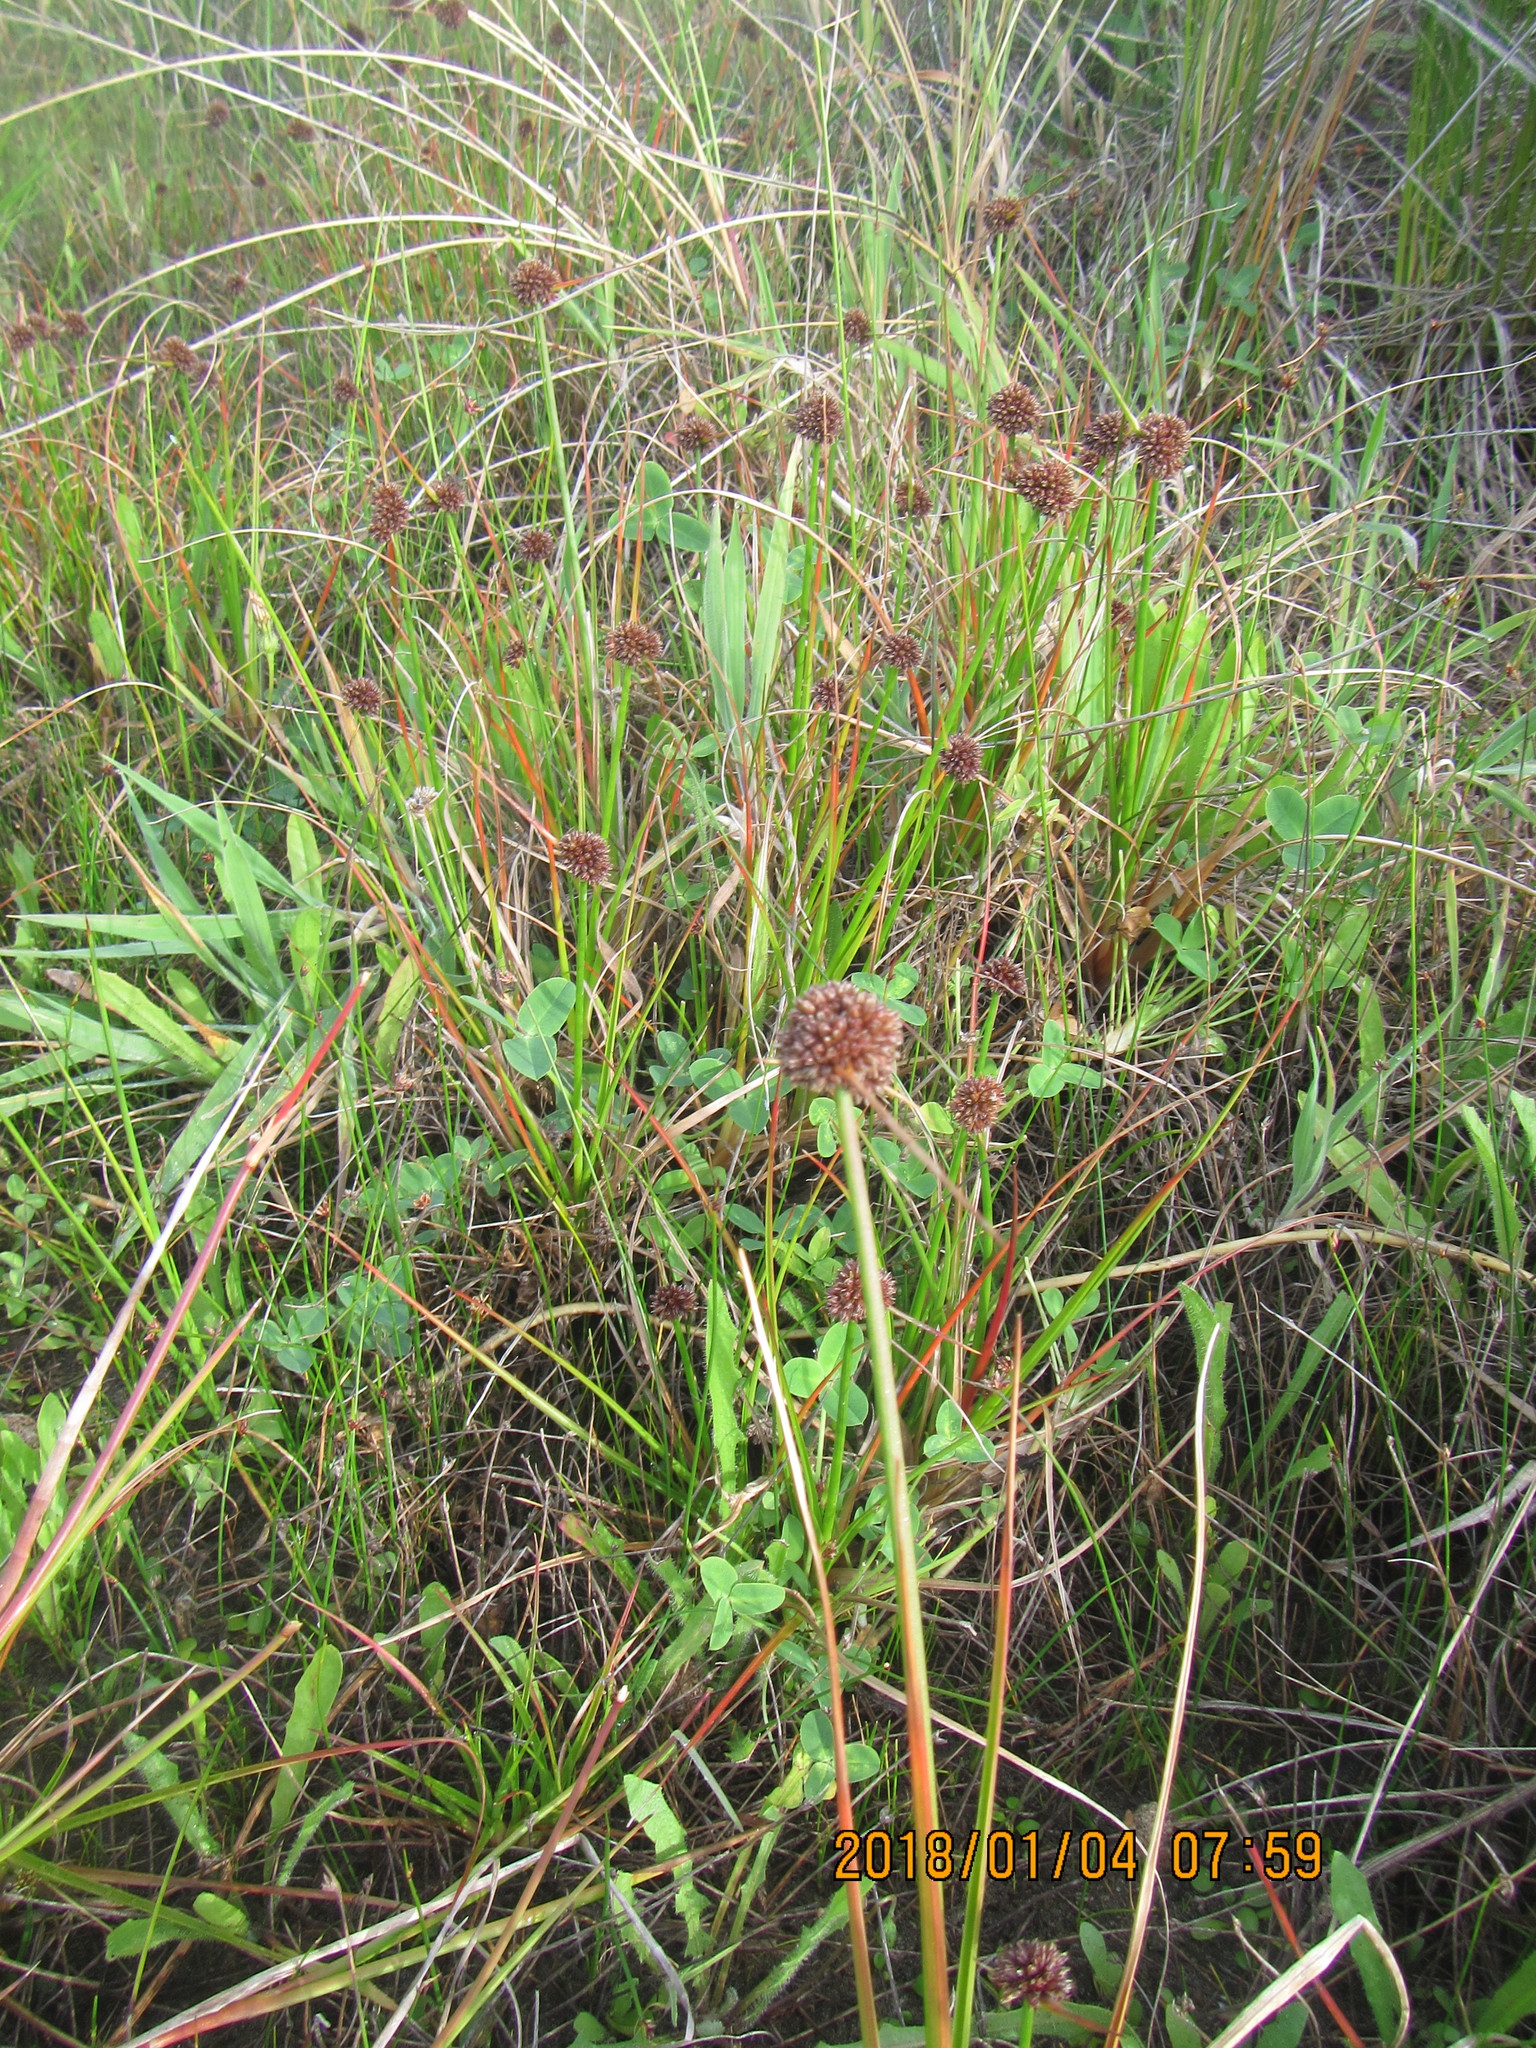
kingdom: Plantae
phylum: Tracheophyta
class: Liliopsida
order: Poales
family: Juncaceae
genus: Juncus
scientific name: Juncus caespiticius
